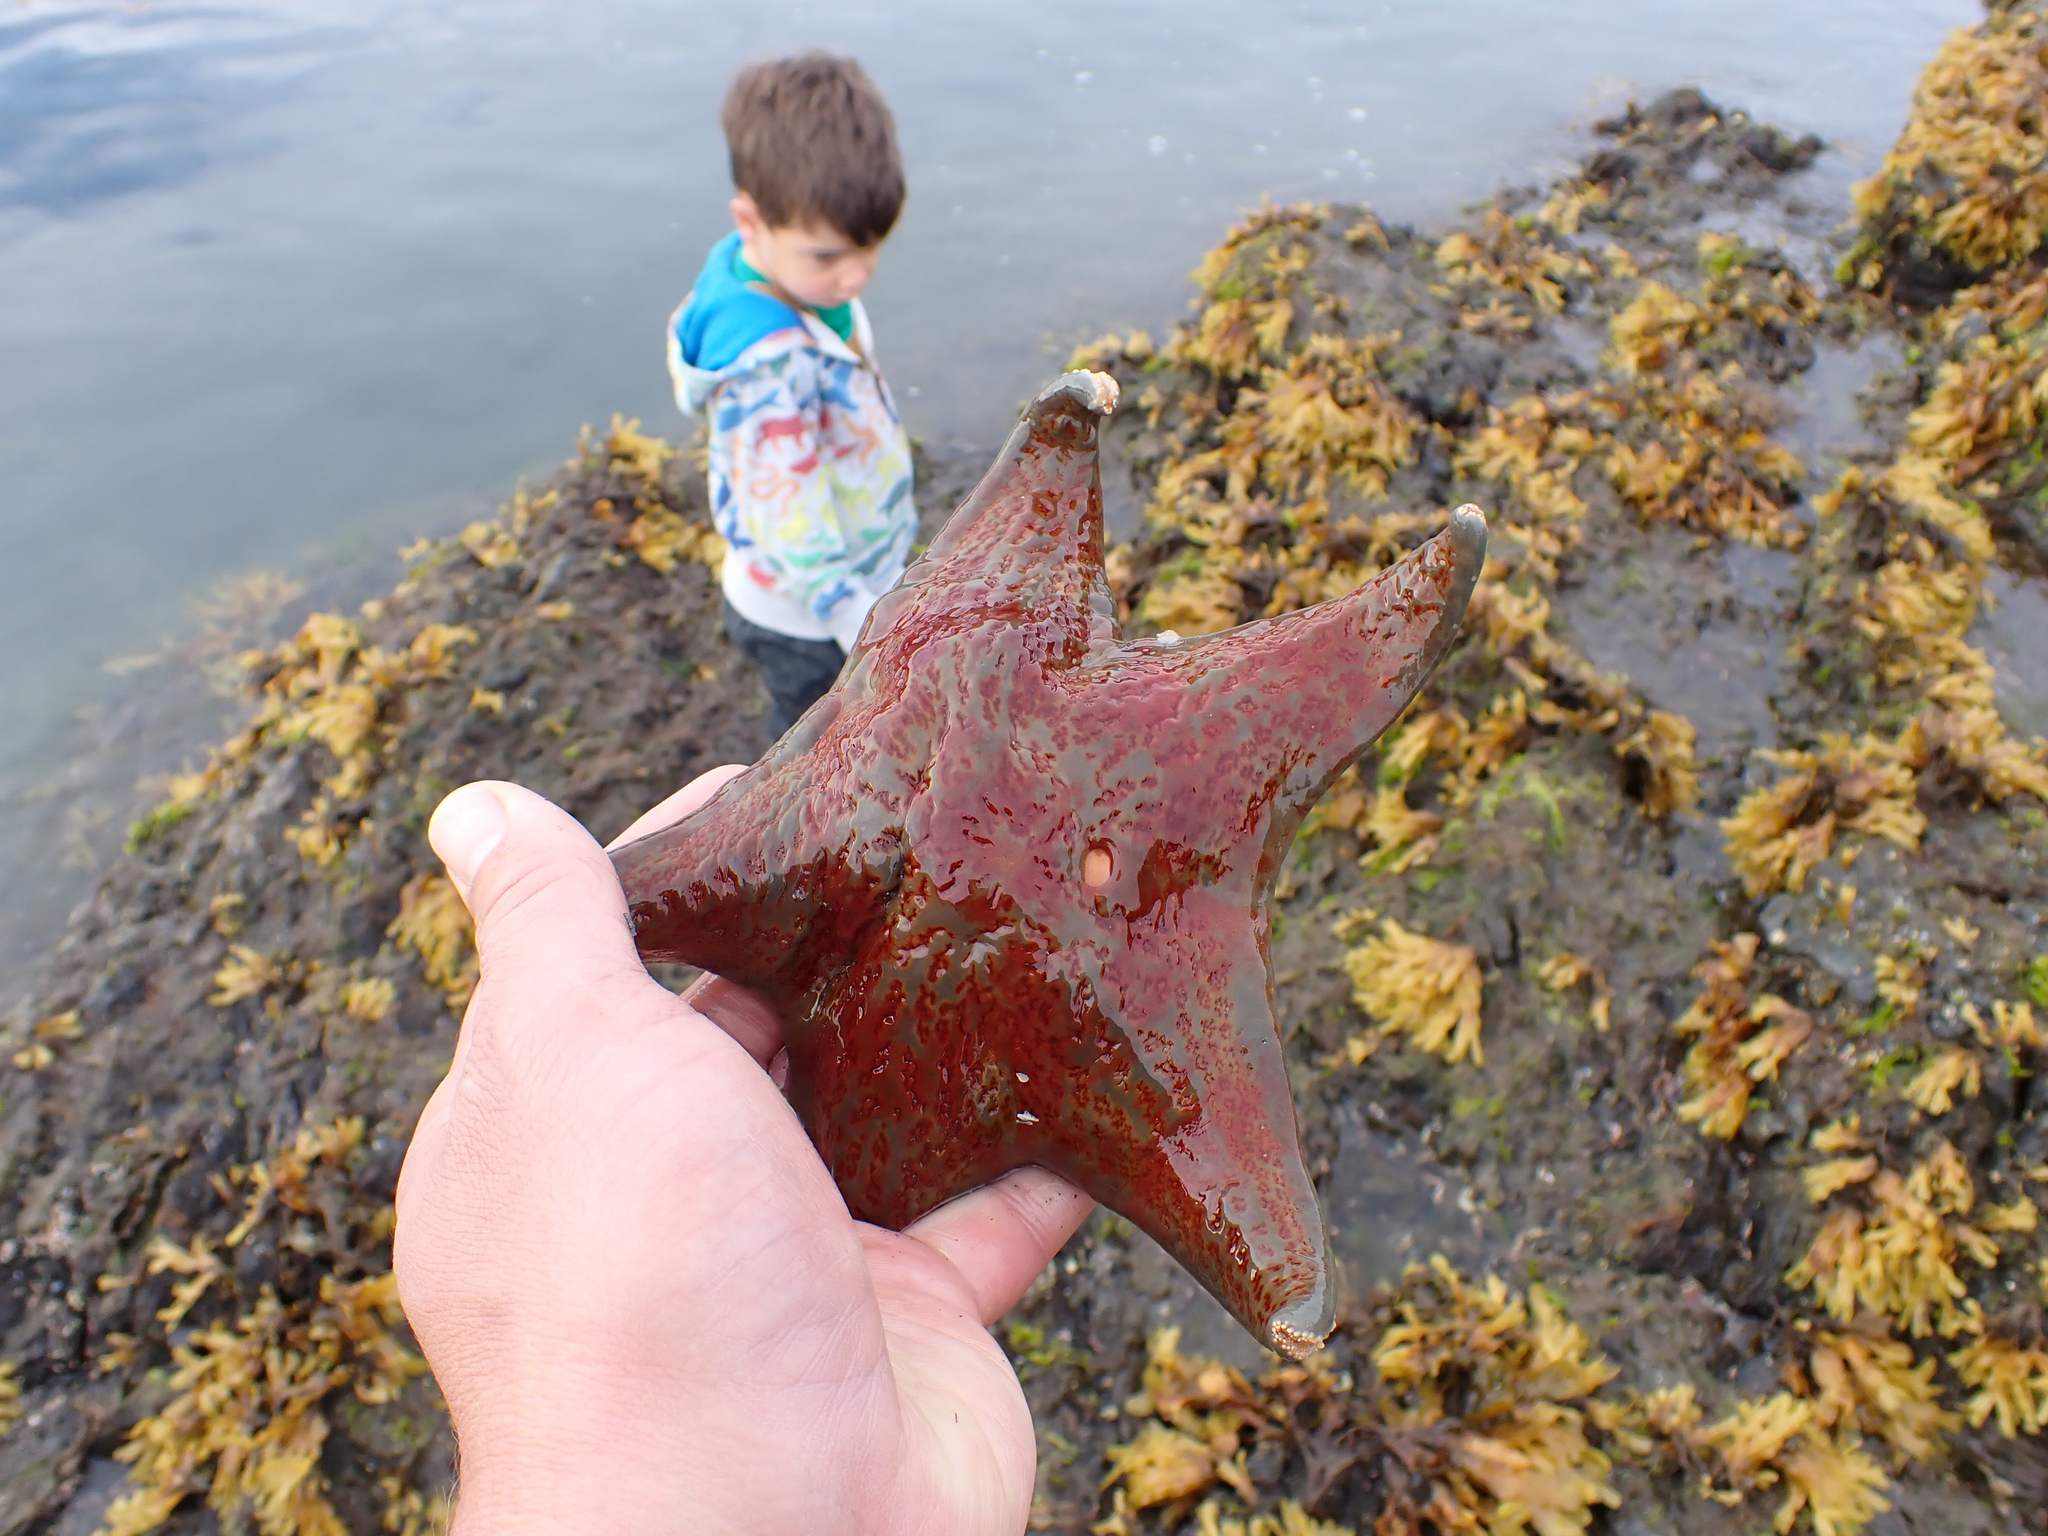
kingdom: Animalia
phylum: Echinodermata
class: Asteroidea
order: Valvatida
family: Asteropseidae
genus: Dermasterias
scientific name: Dermasterias imbricata
